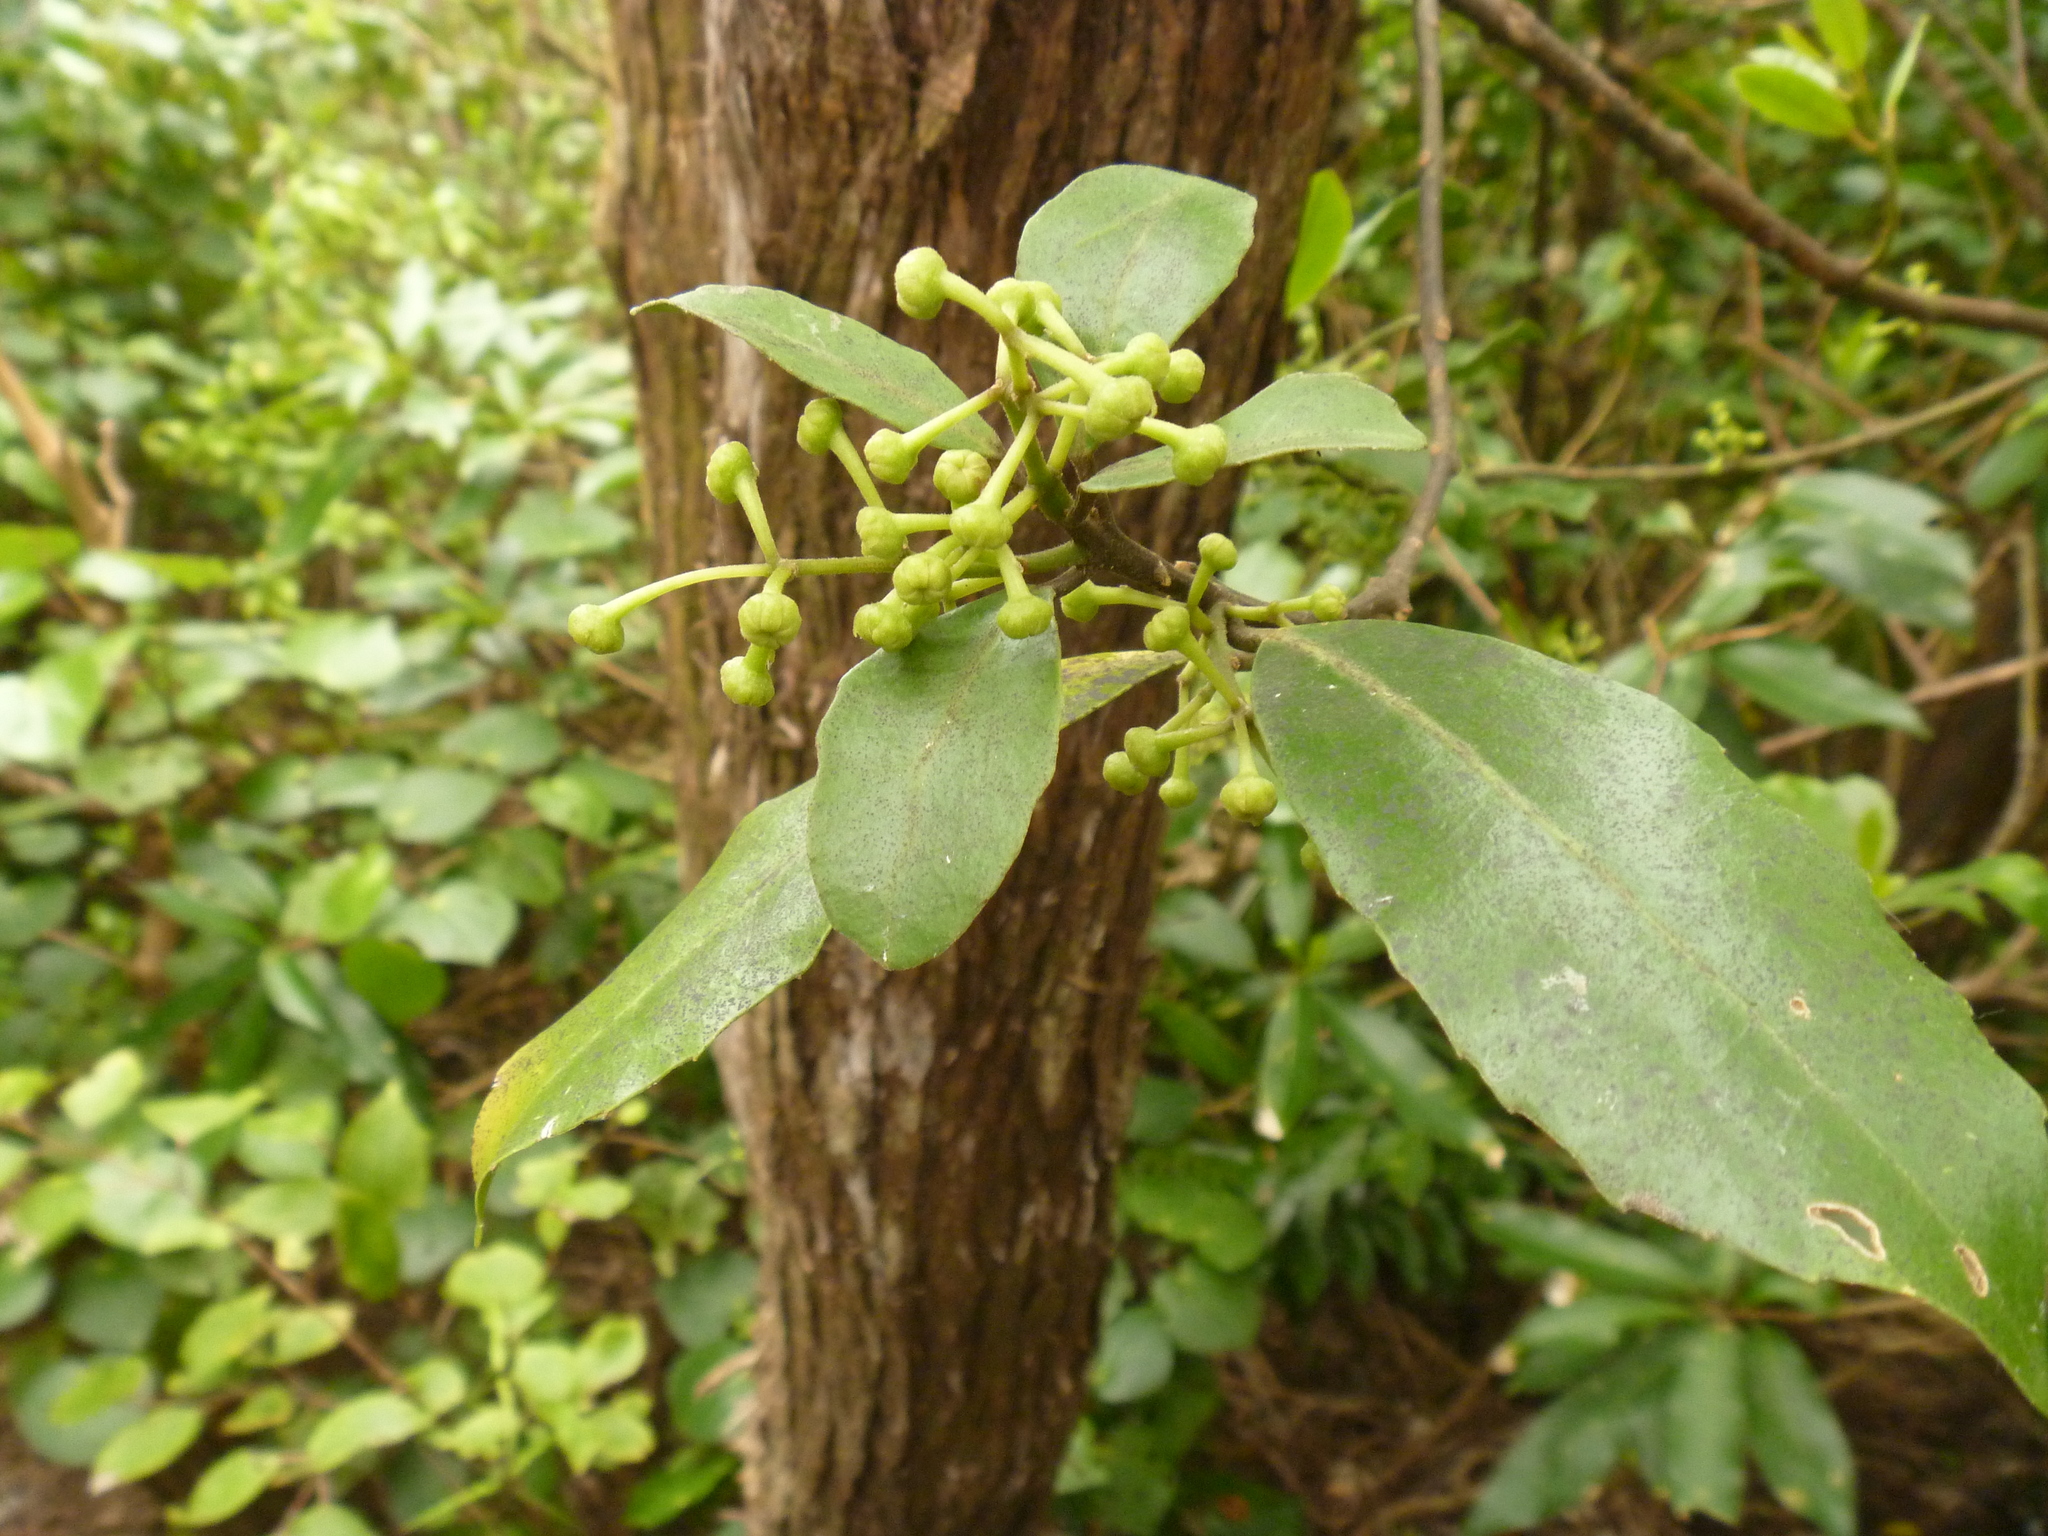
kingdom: Plantae
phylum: Tracheophyta
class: Magnoliopsida
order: Malpighiales
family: Violaceae
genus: Melicytus
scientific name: Melicytus macrophyllus
